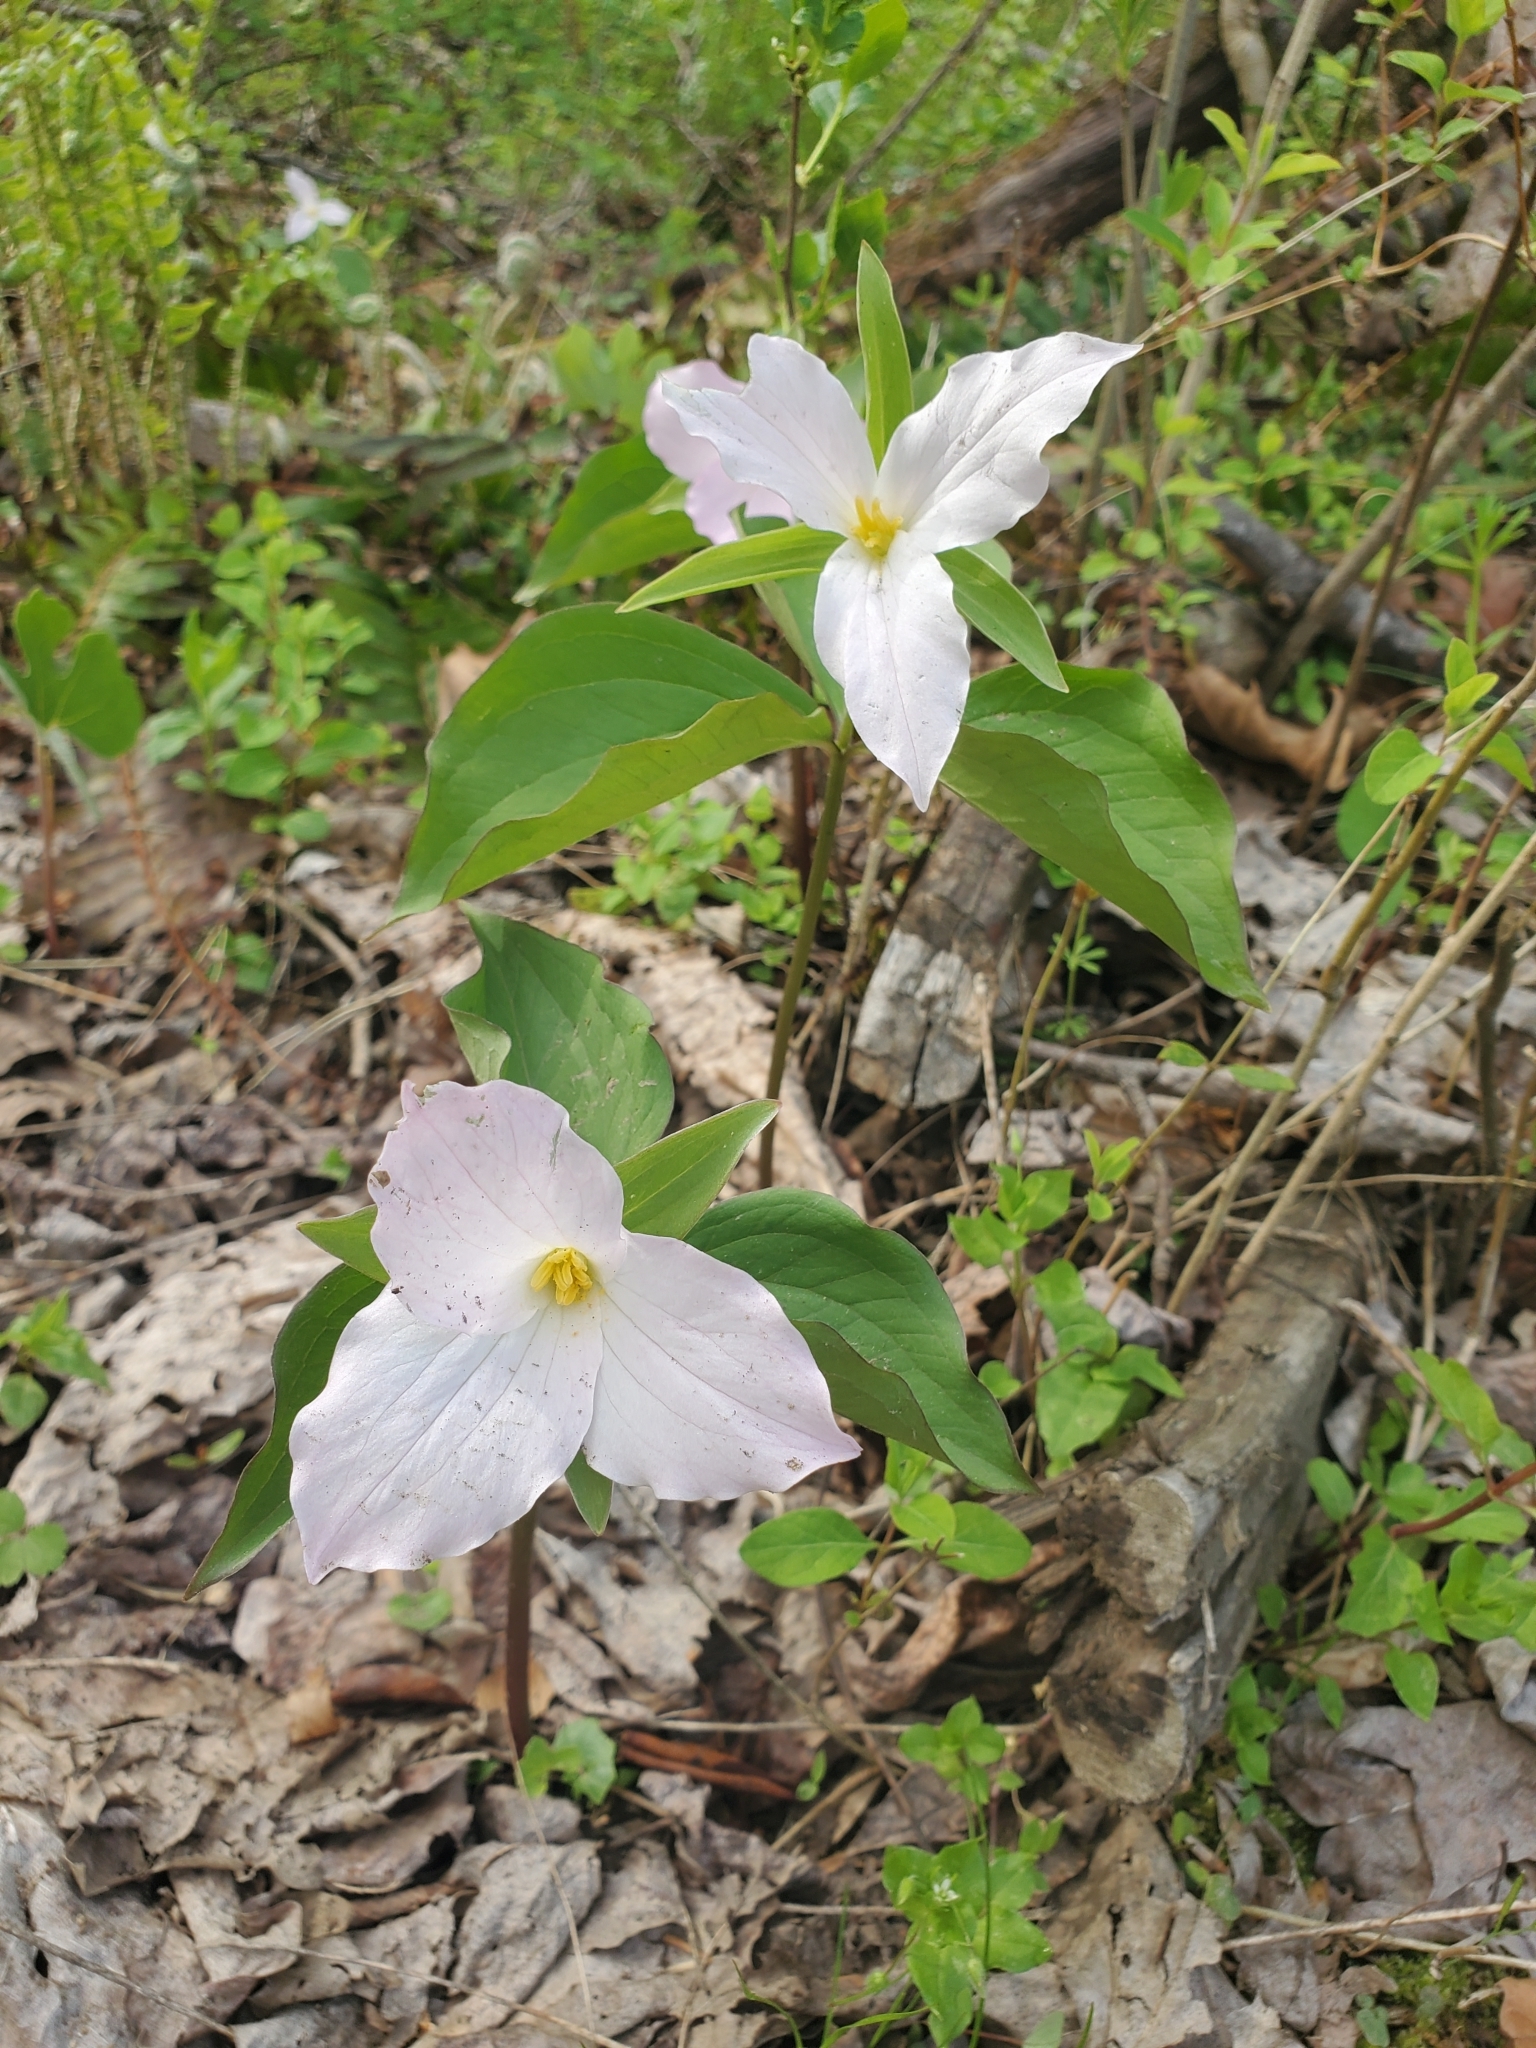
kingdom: Plantae
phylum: Tracheophyta
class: Liliopsida
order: Liliales
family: Melanthiaceae
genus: Trillium
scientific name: Trillium grandiflorum
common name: Great white trillium
